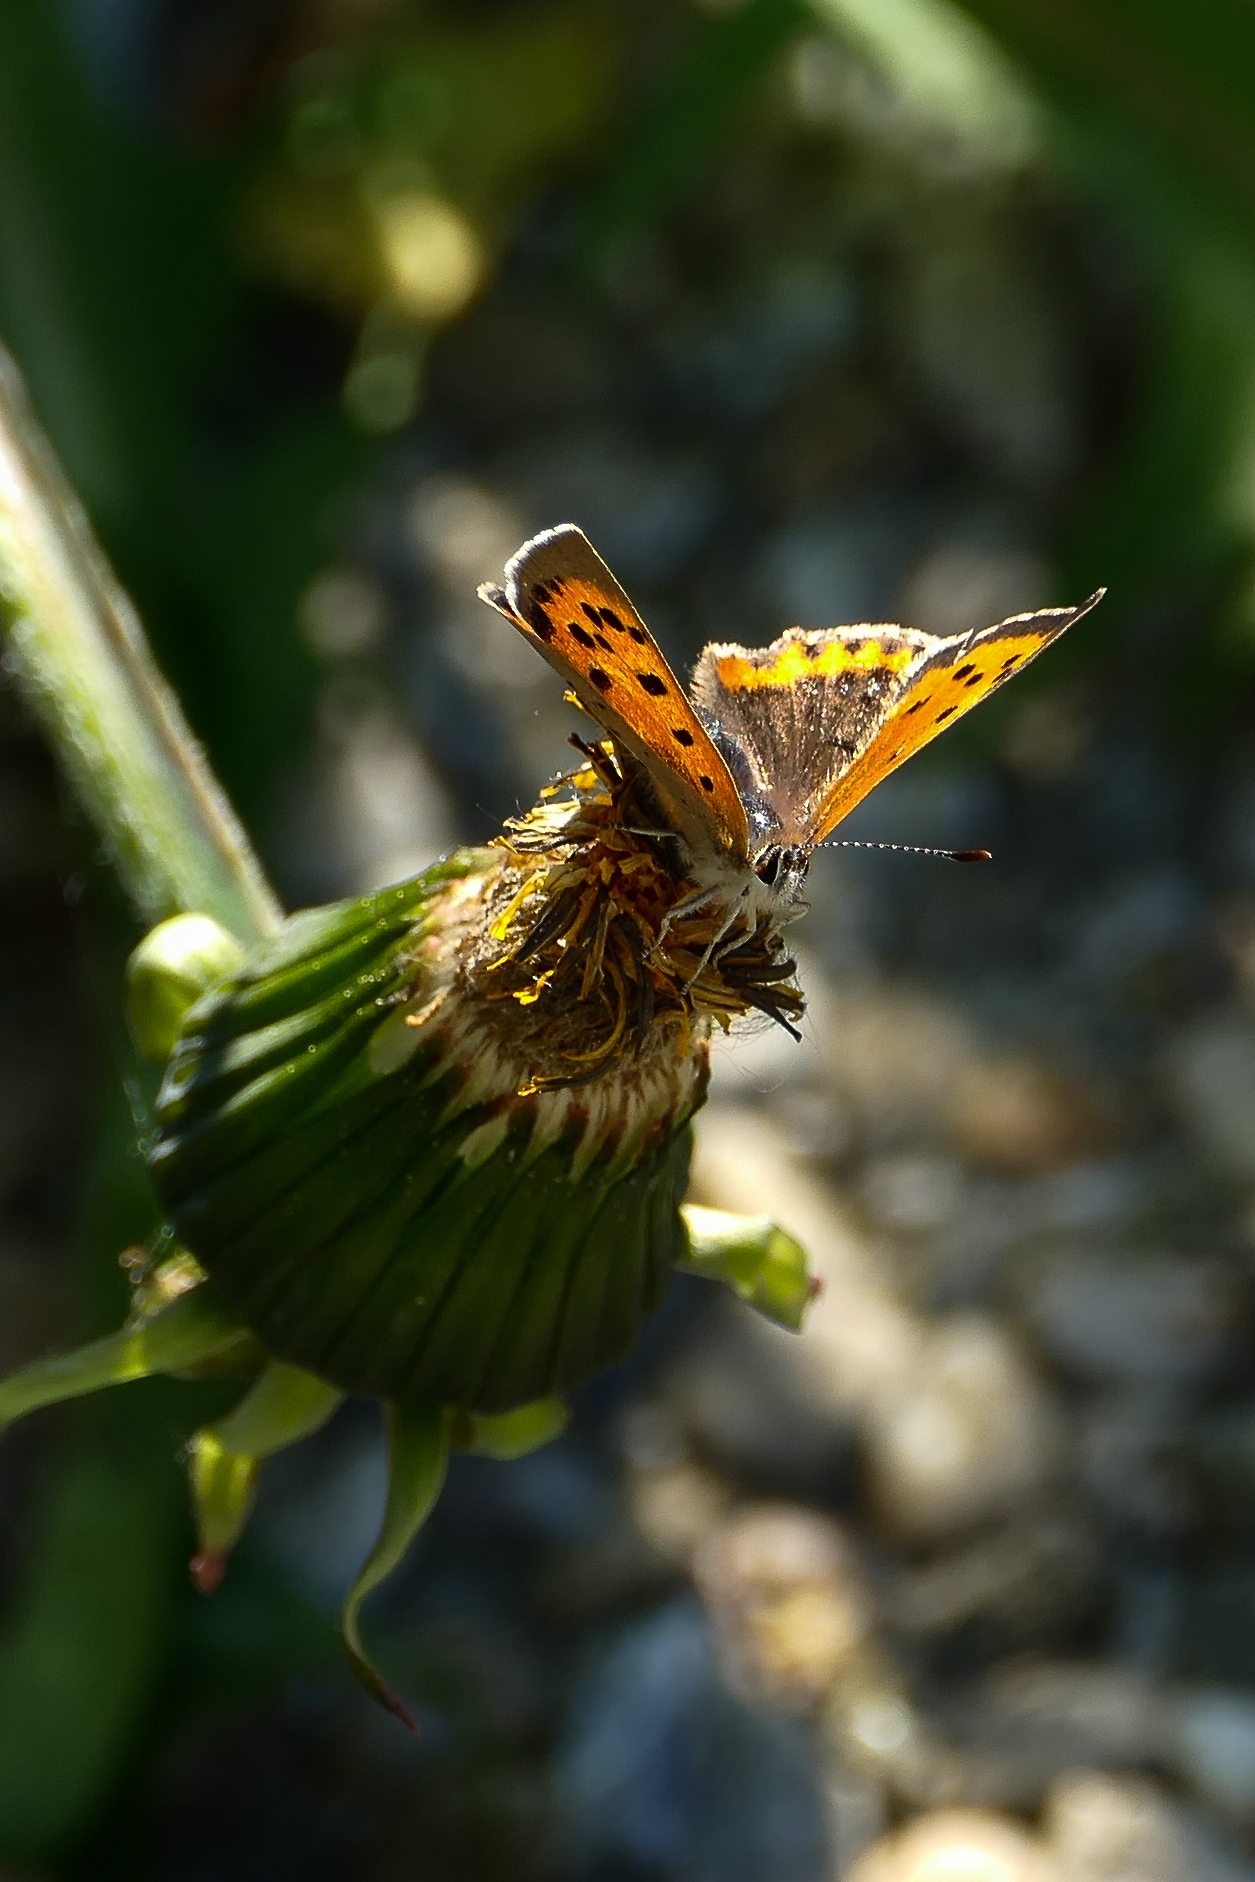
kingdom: Animalia
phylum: Arthropoda
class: Insecta
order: Lepidoptera
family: Lycaenidae
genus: Lycaena
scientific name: Lycaena phlaeas
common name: Small copper
